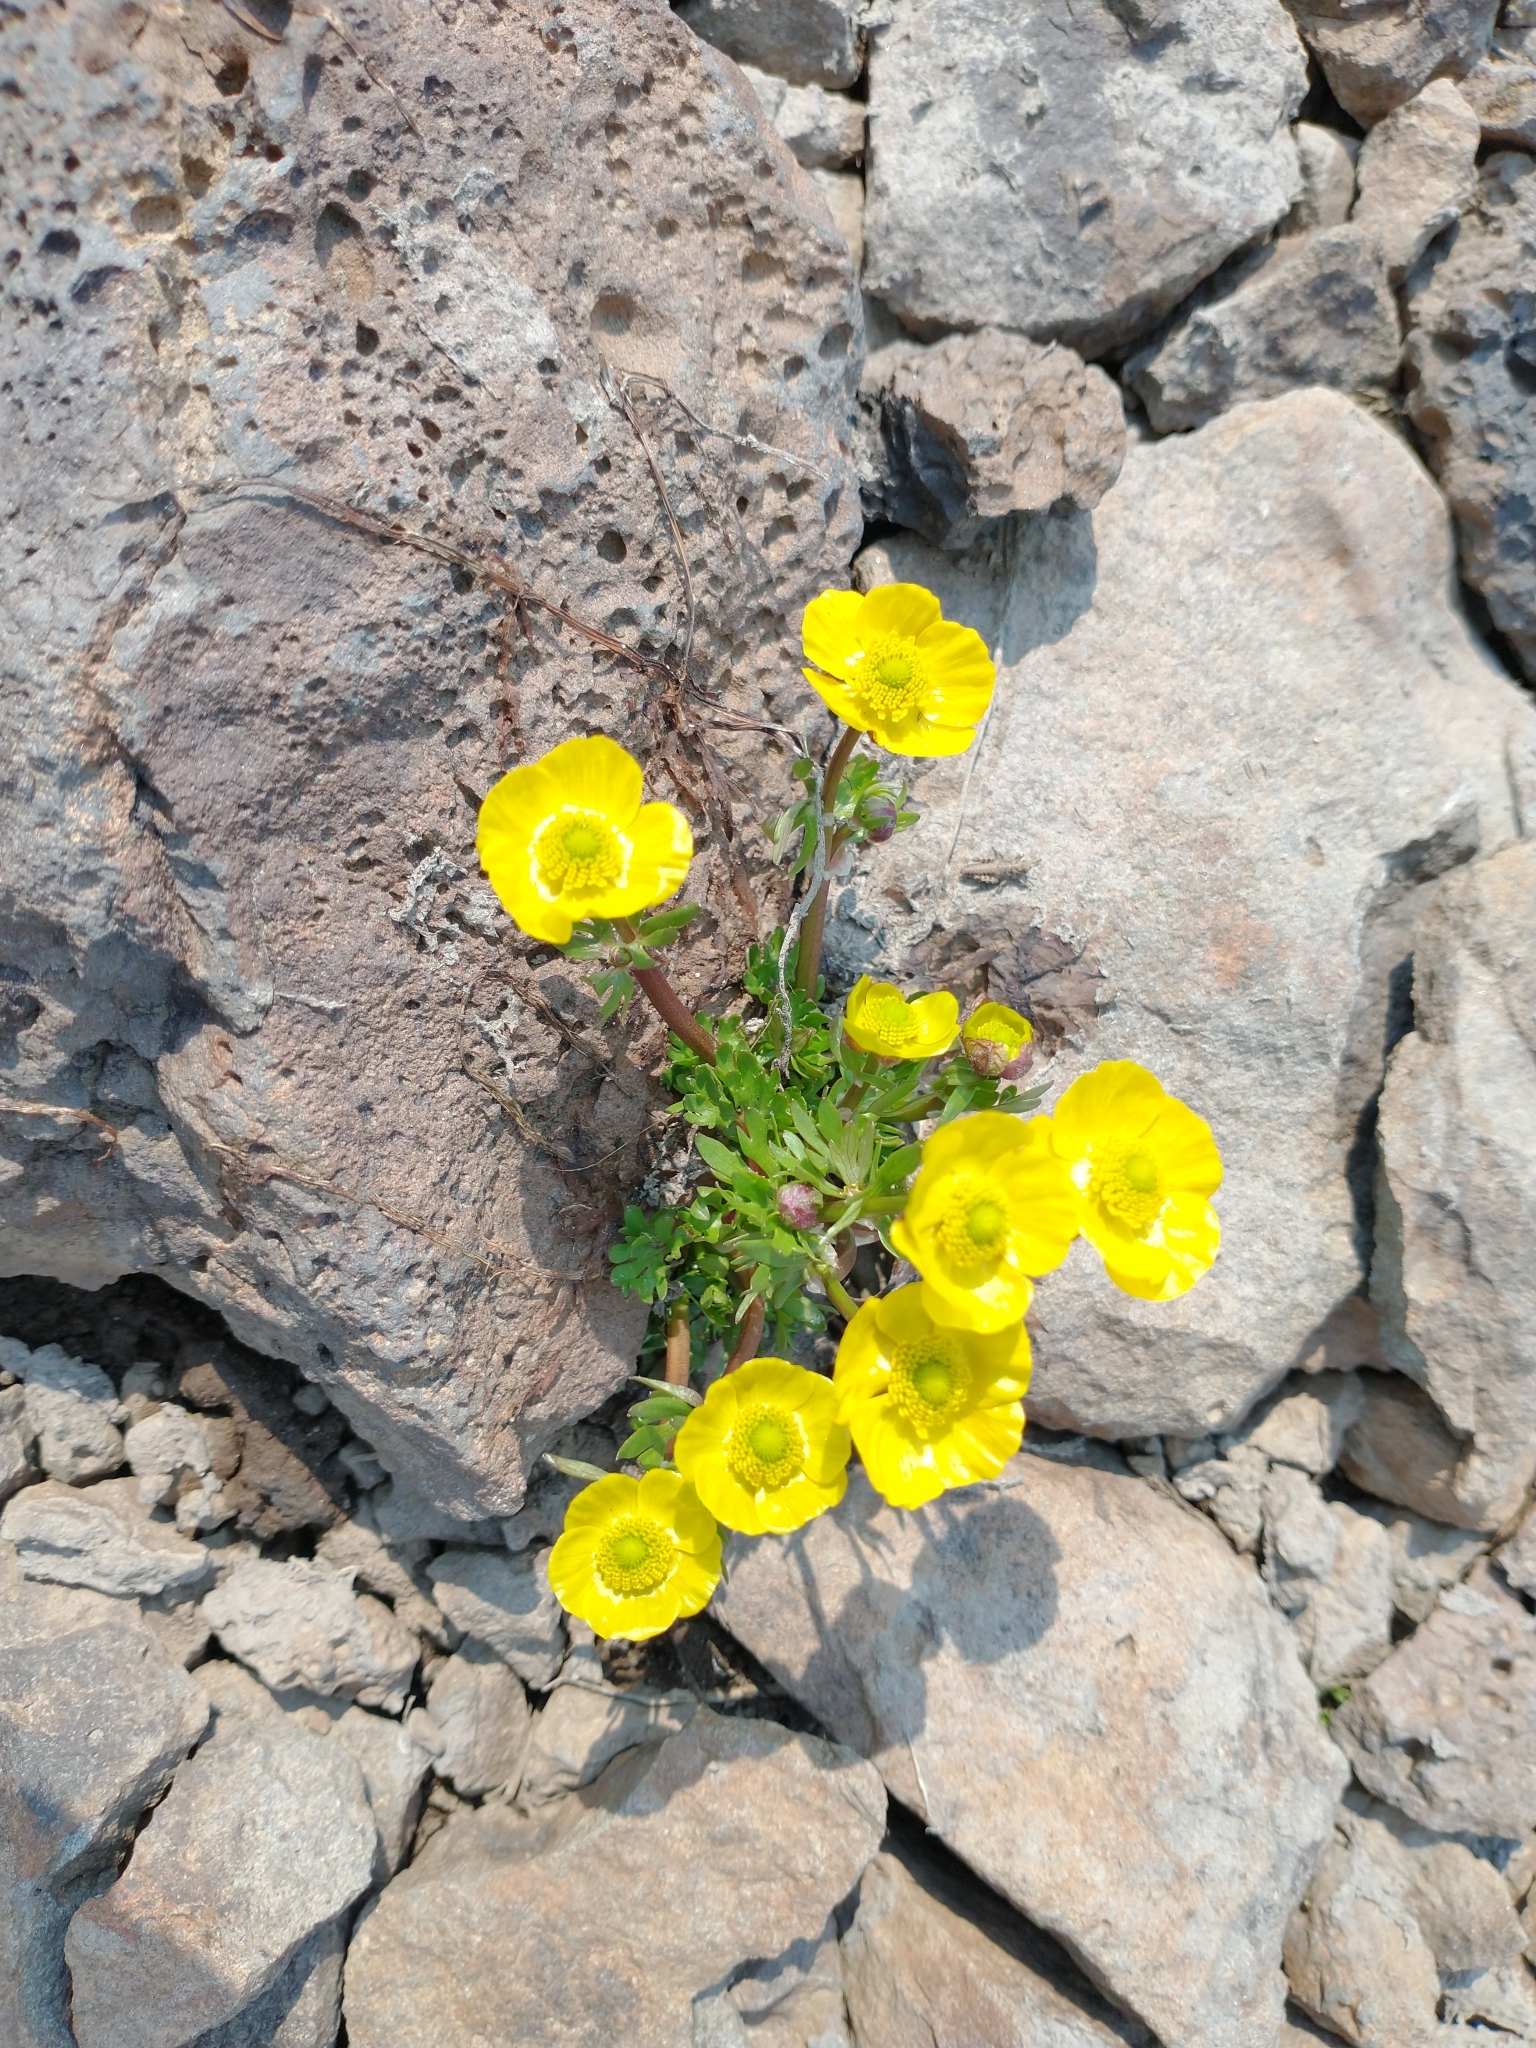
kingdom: Plantae
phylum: Tracheophyta
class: Magnoliopsida
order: Ranunculales
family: Ranunculaceae
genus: Ranunculus
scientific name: Ranunculus eschscholtzii
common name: Eschscholtz's buttercup
